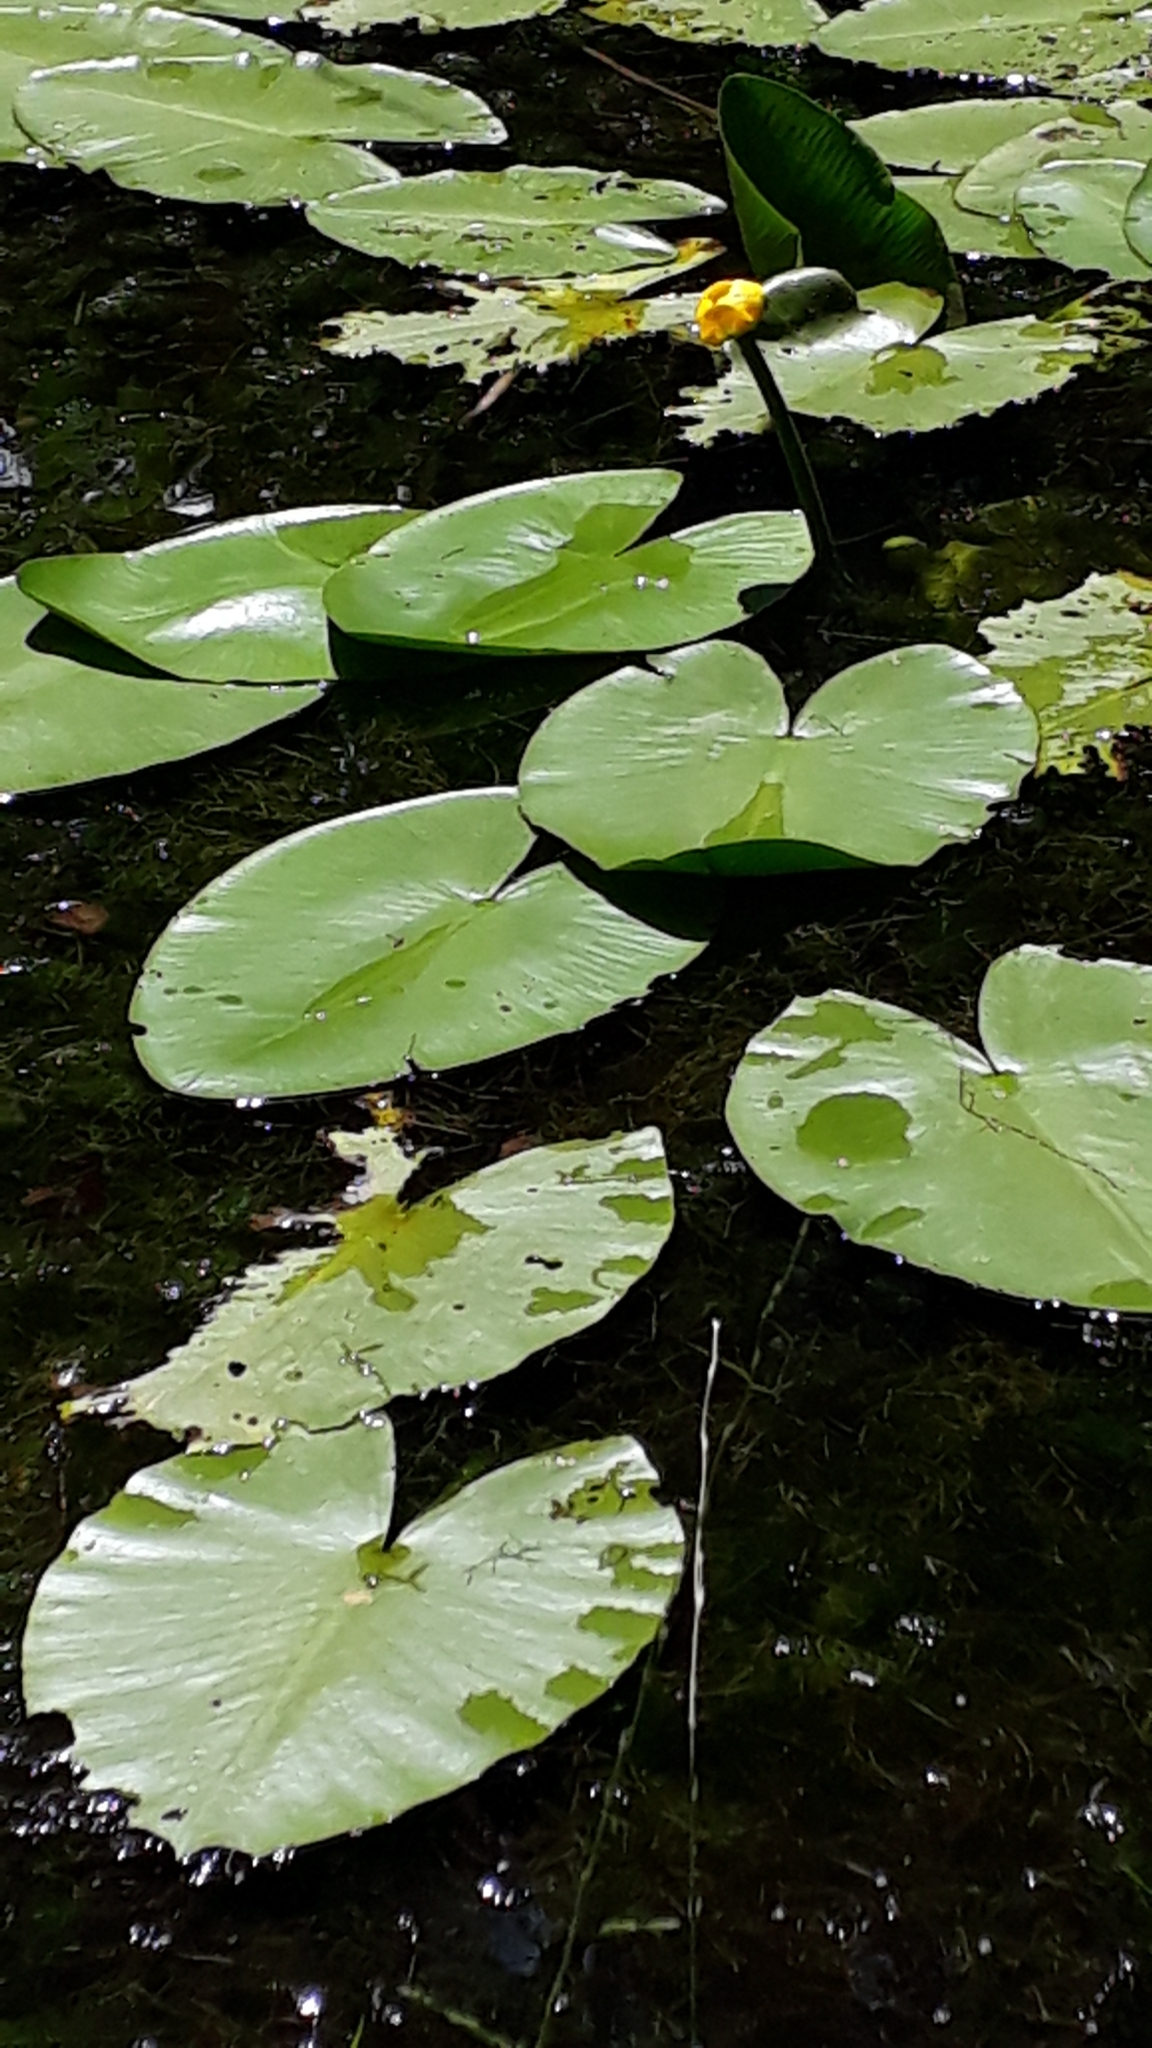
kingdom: Plantae
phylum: Tracheophyta
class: Magnoliopsida
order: Nymphaeales
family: Nymphaeaceae
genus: Nuphar
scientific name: Nuphar lutea
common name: Yellow water-lily
